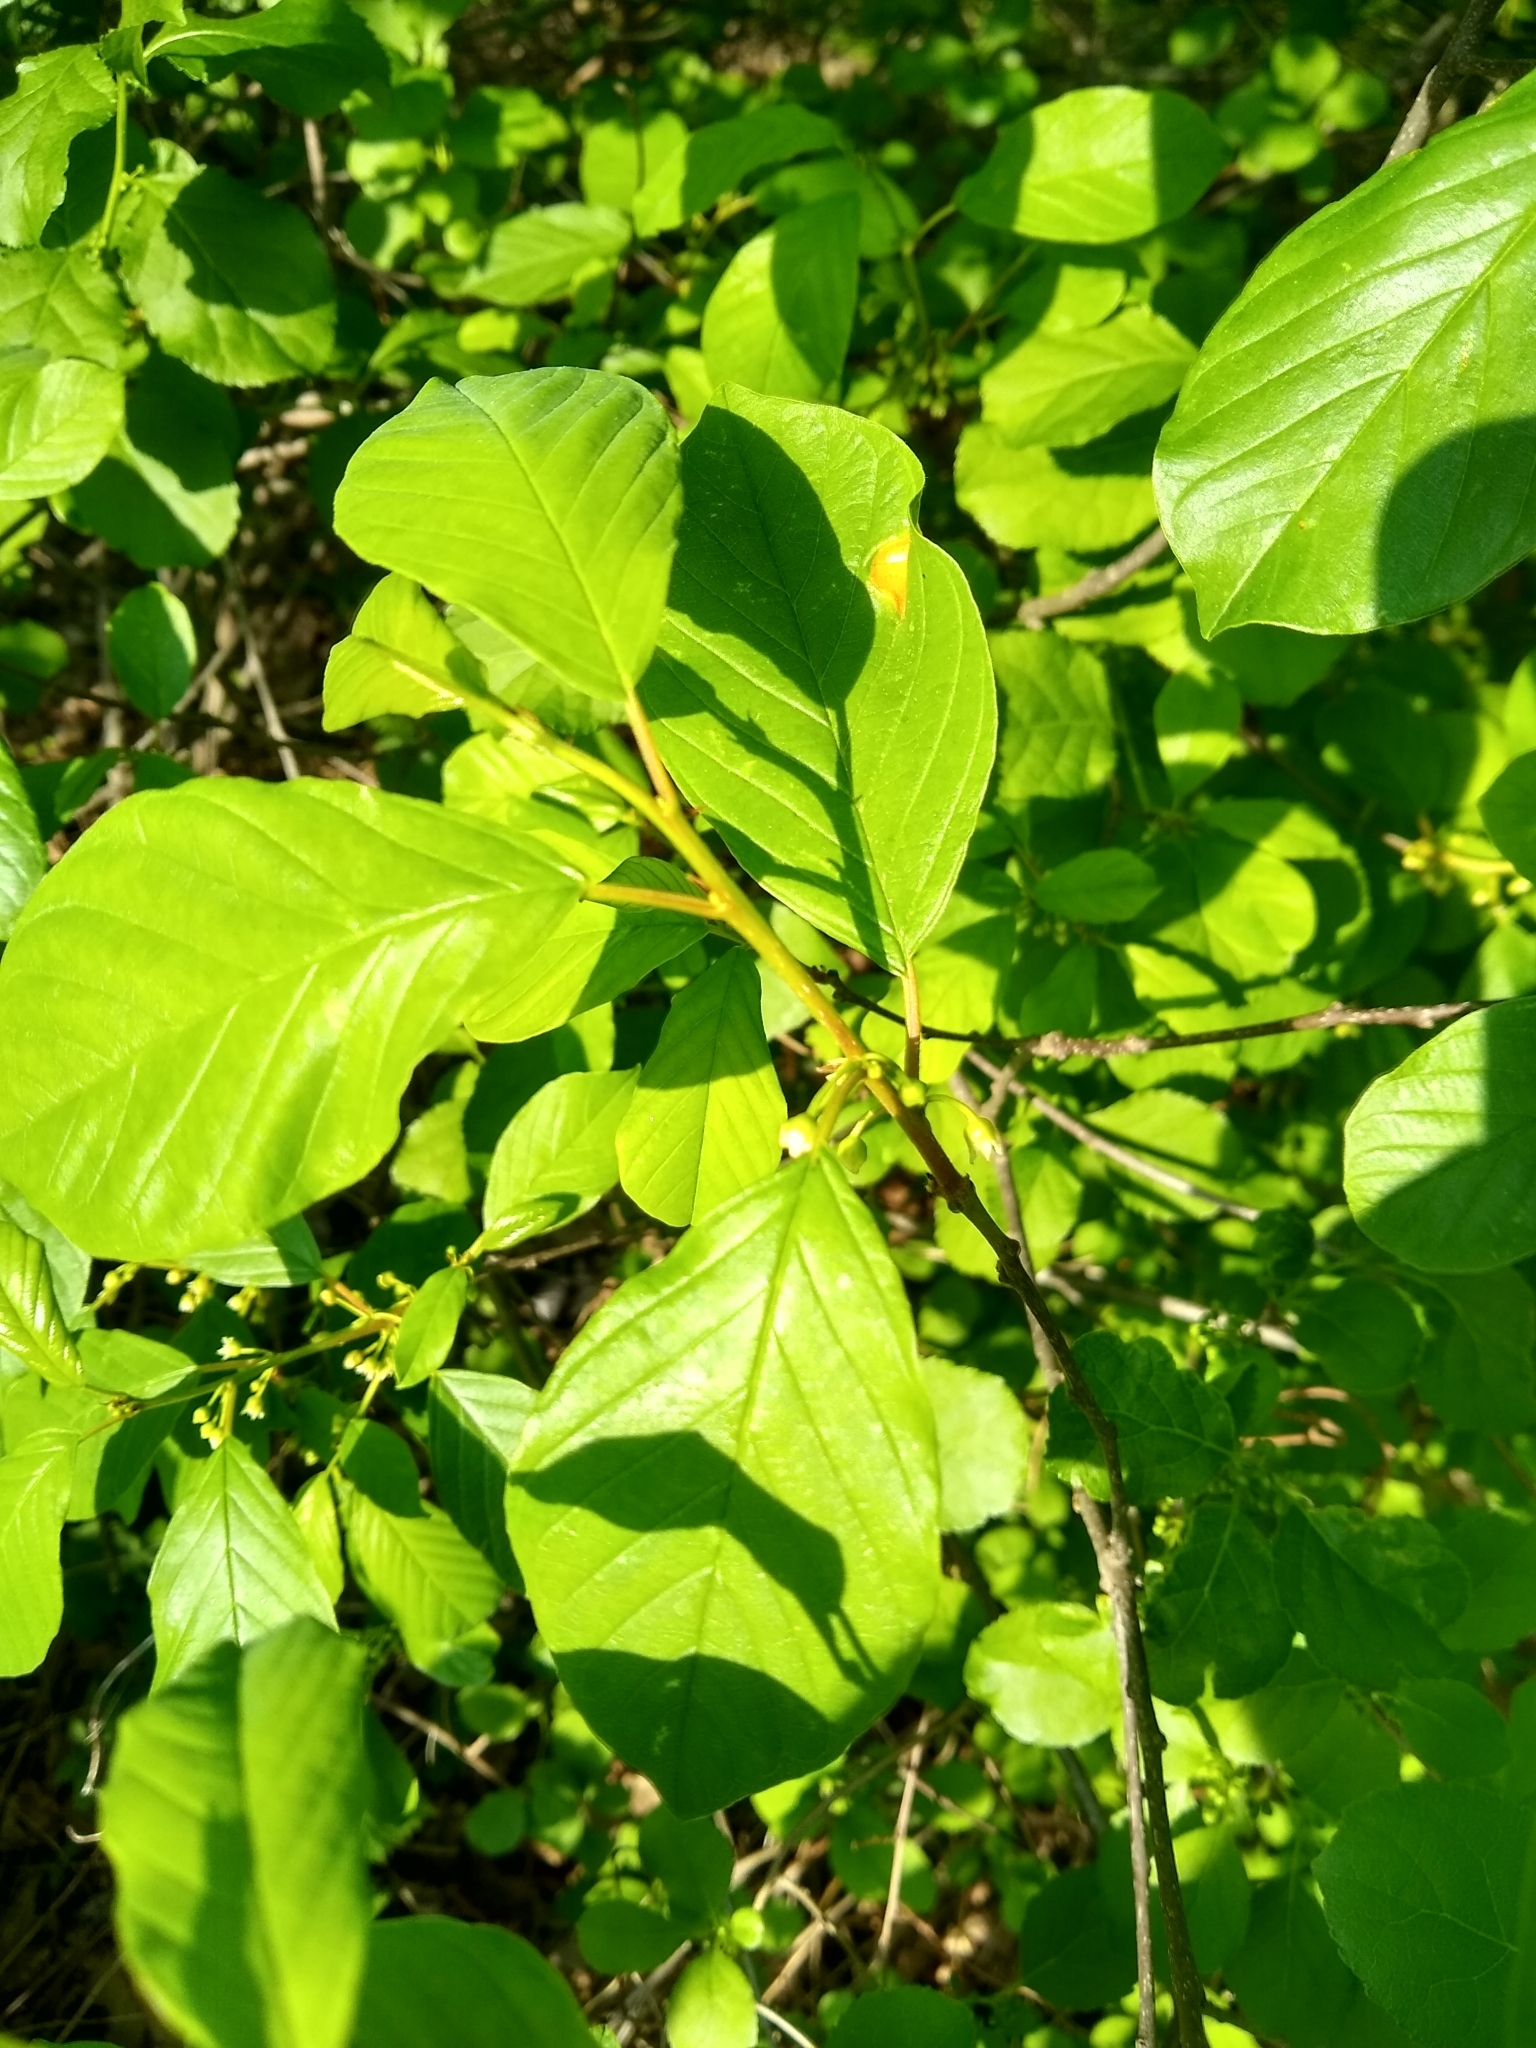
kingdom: Fungi
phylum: Basidiomycota
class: Pucciniomycetes
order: Pucciniales
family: Pucciniaceae
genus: Puccinia
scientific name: Puccinia coronata
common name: Crown rust
